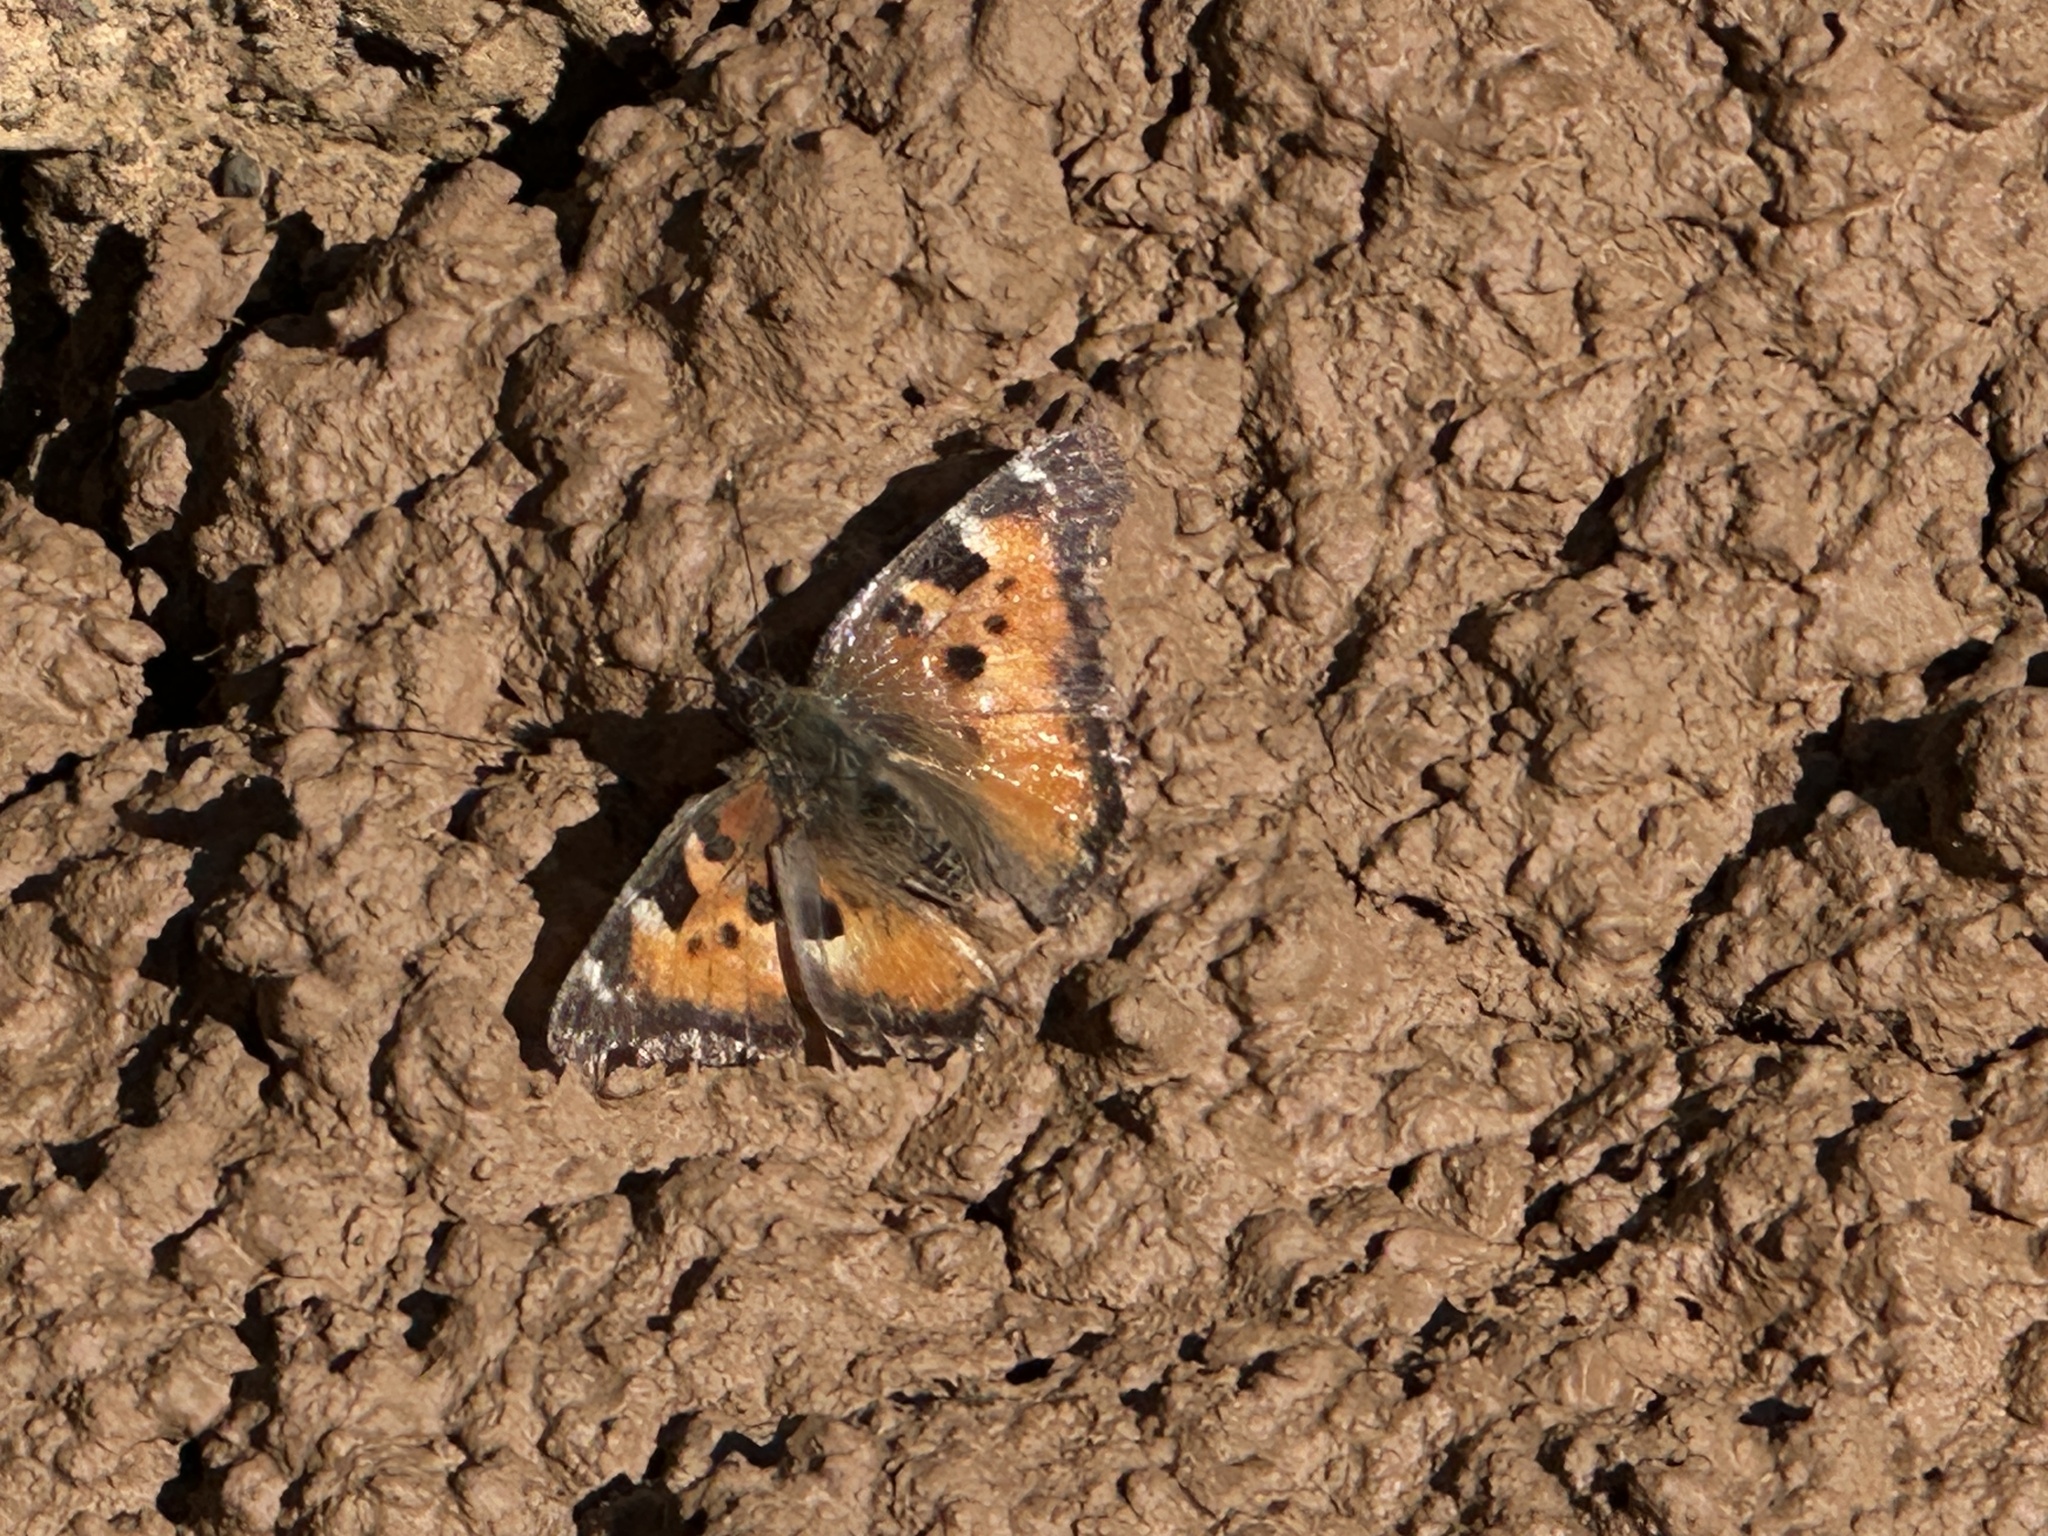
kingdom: Animalia
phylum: Arthropoda
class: Insecta
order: Lepidoptera
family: Nymphalidae
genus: Nymphalis
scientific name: Nymphalis californica
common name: California tortoiseshell
